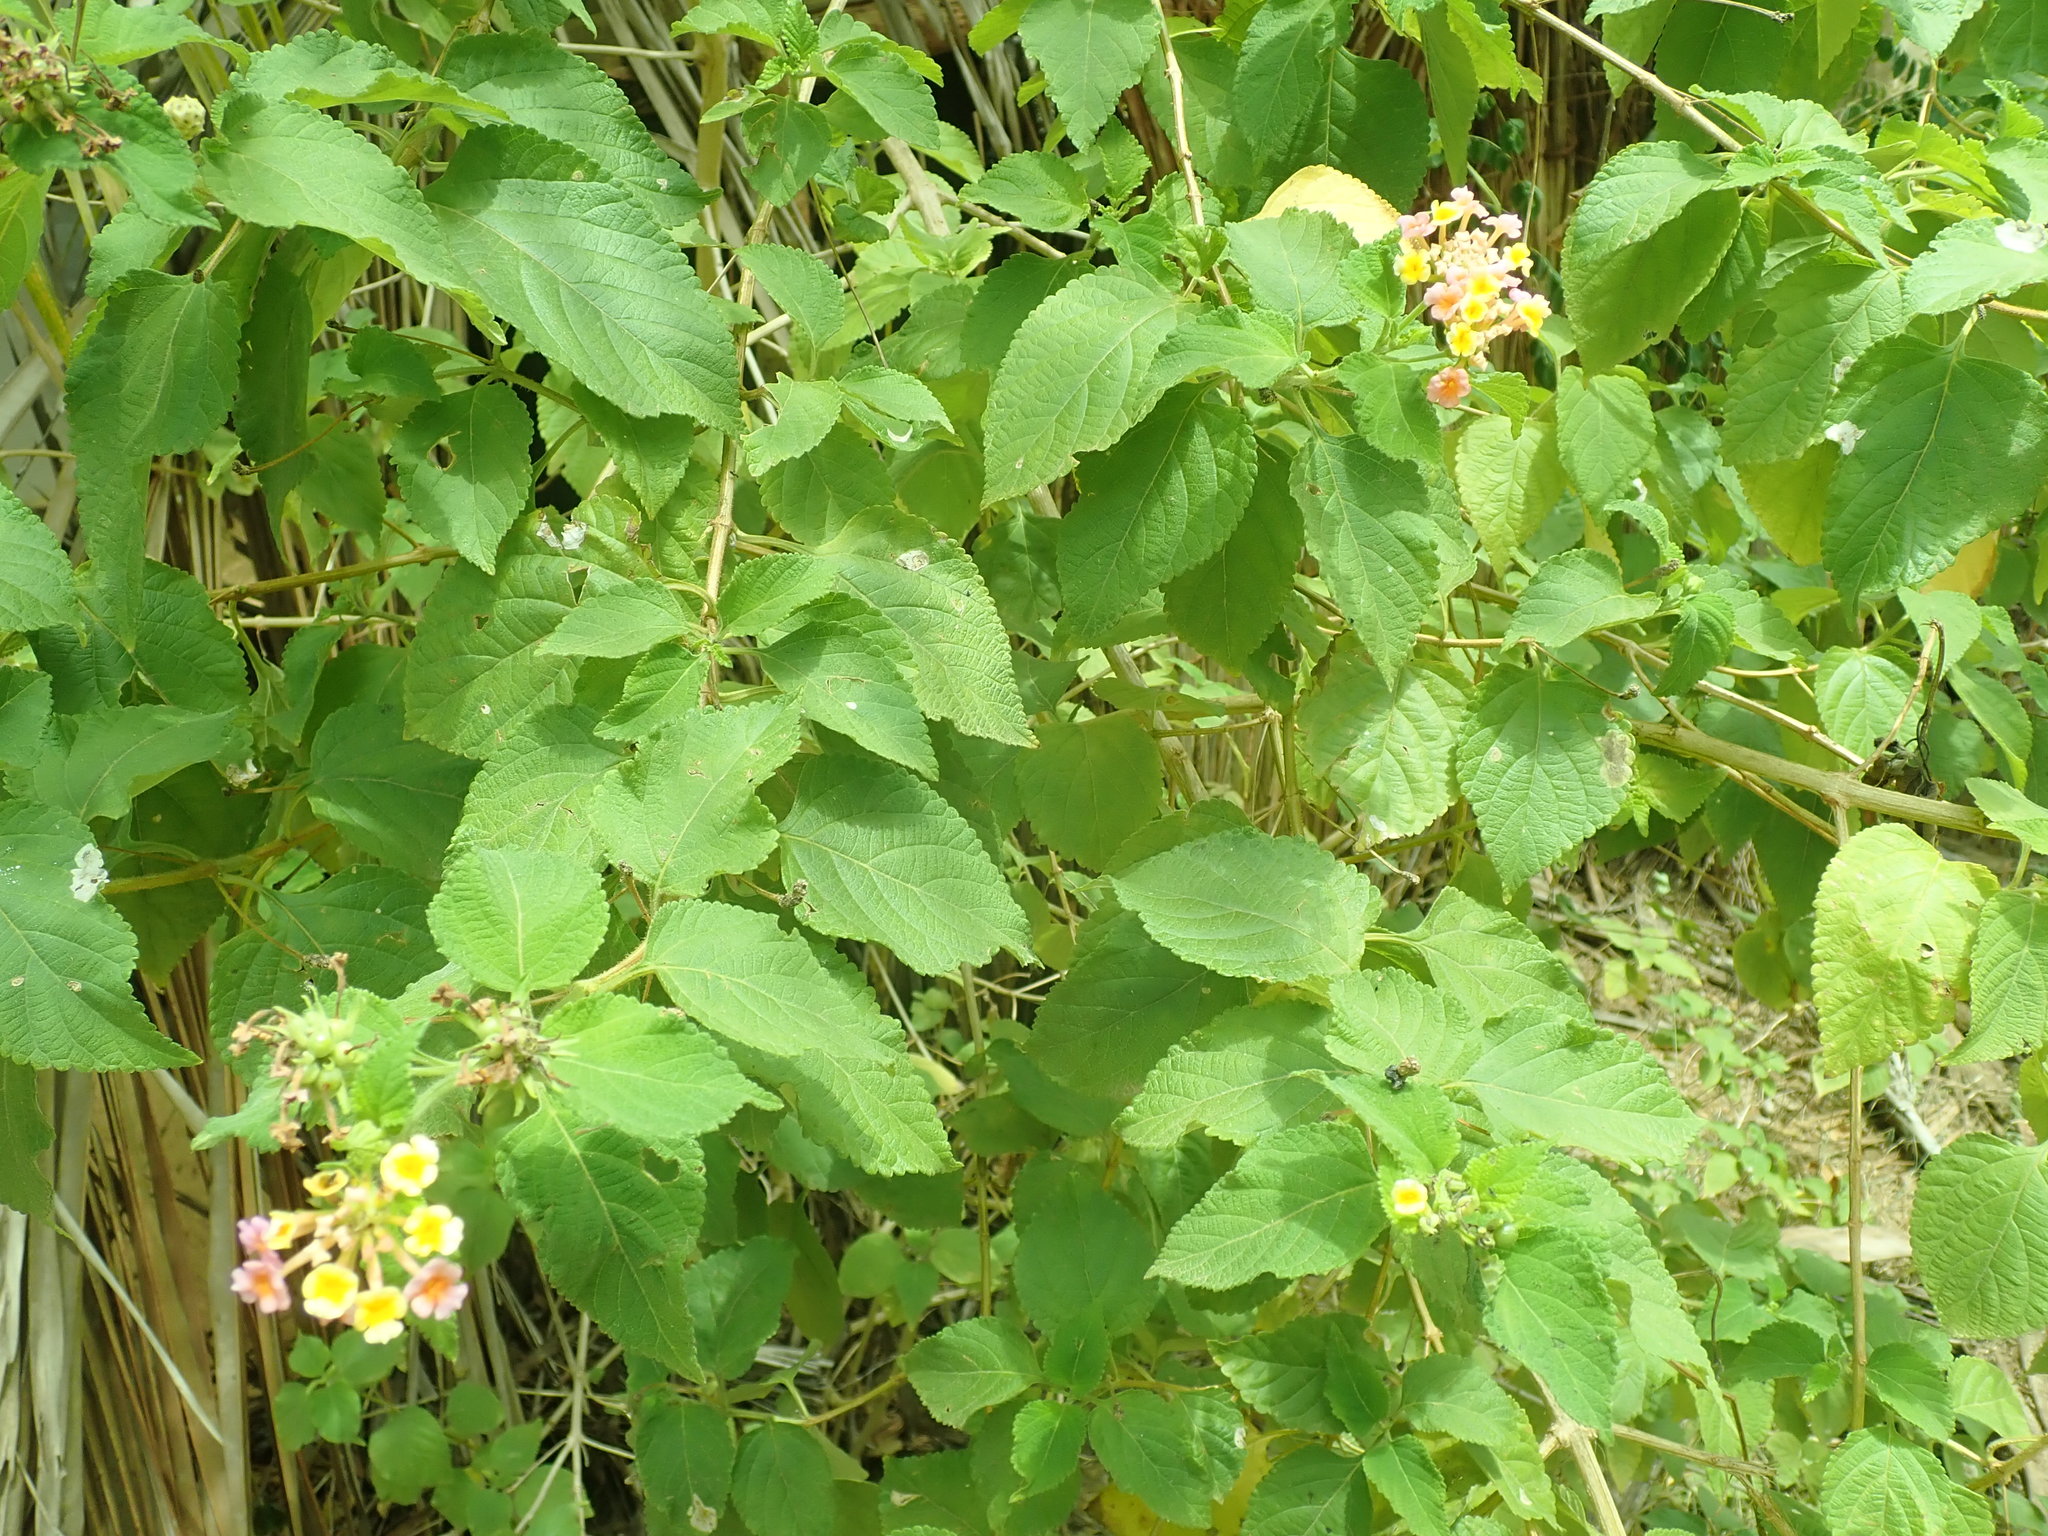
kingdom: Plantae
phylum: Tracheophyta
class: Magnoliopsida
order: Lamiales
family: Verbenaceae
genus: Lantana
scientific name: Lantana camara
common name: Lantana
